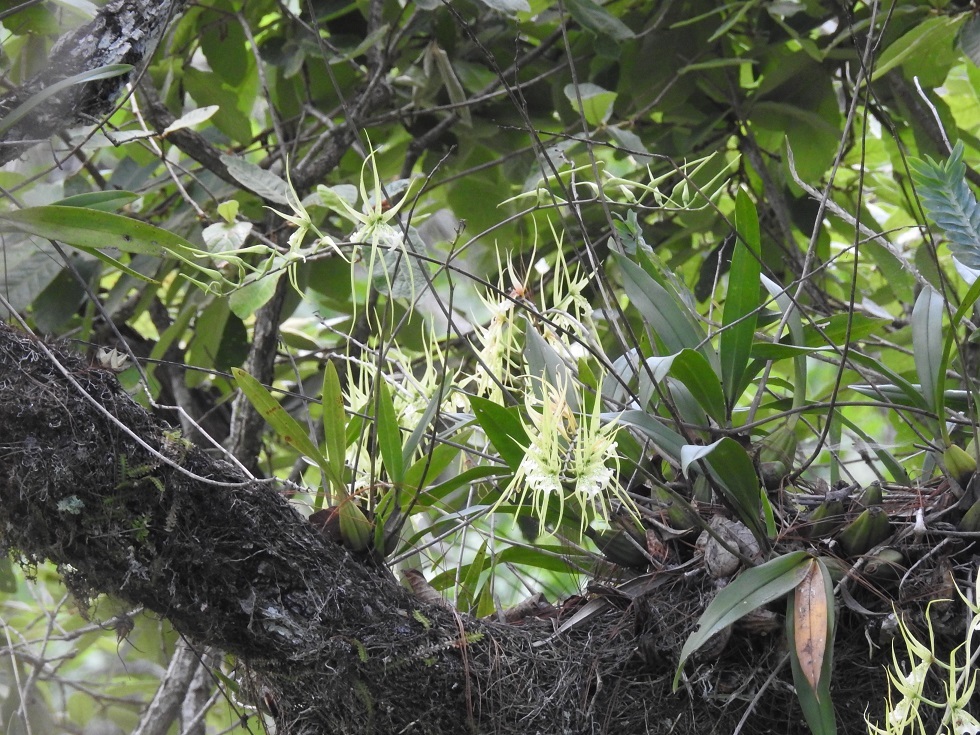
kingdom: Plantae
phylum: Tracheophyta
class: Liliopsida
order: Asparagales
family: Orchidaceae
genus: Brassia
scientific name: Brassia verrucosa
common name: Warty brassia
